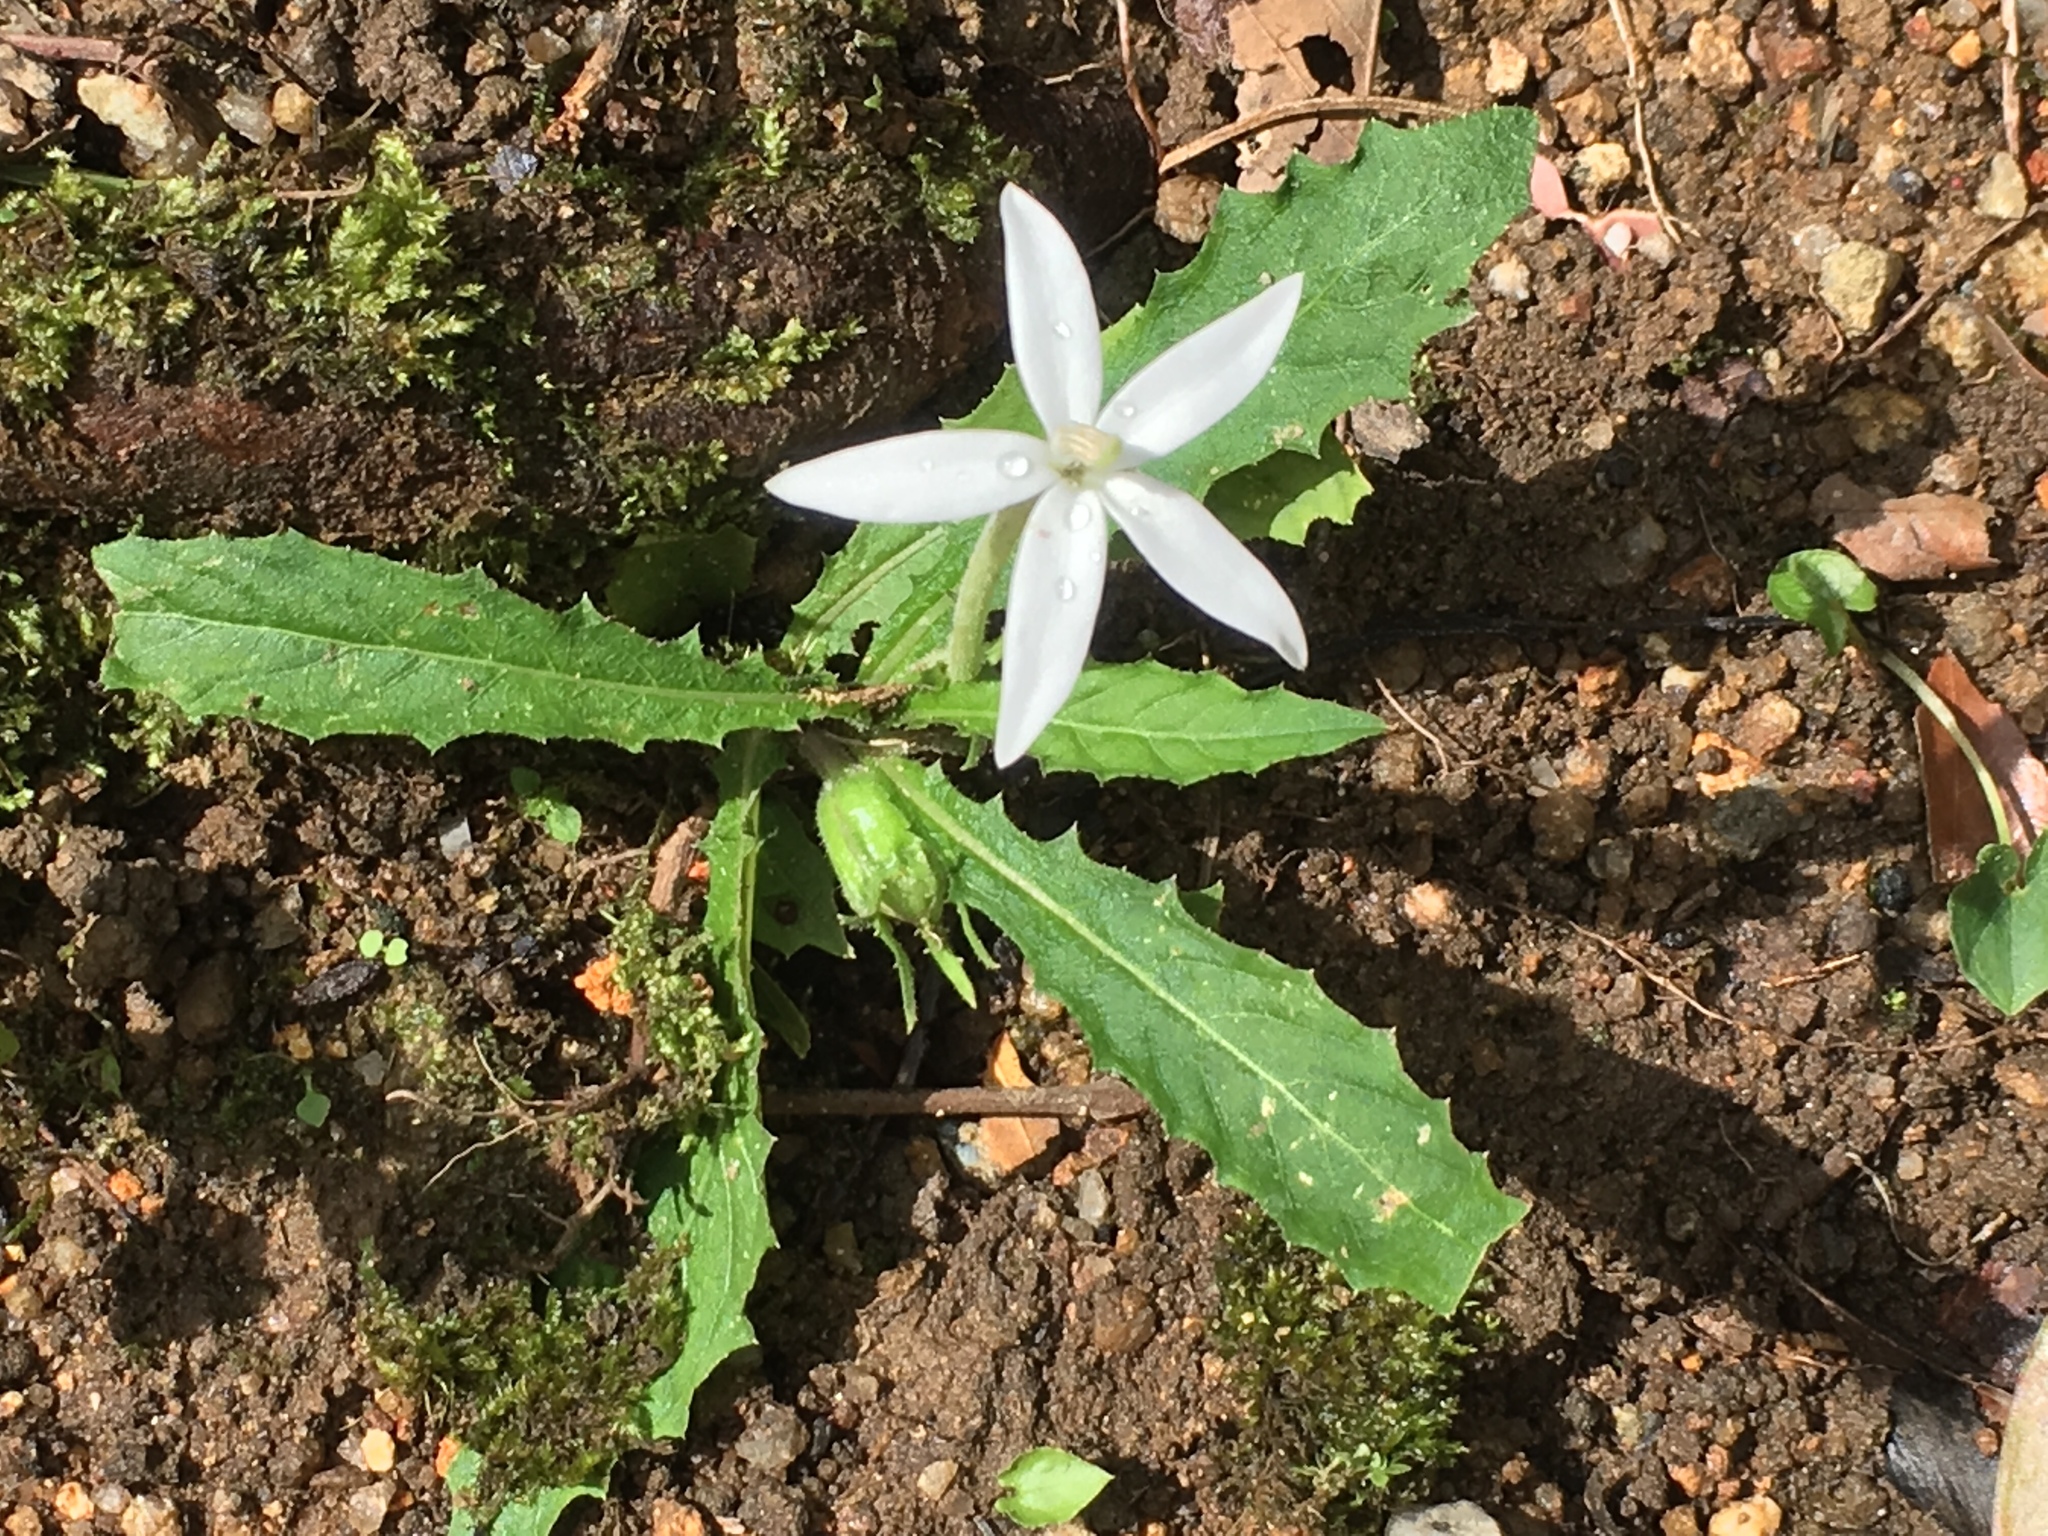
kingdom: Plantae
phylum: Tracheophyta
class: Magnoliopsida
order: Asterales
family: Campanulaceae
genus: Hippobroma
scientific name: Hippobroma longiflora
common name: Madamfate
